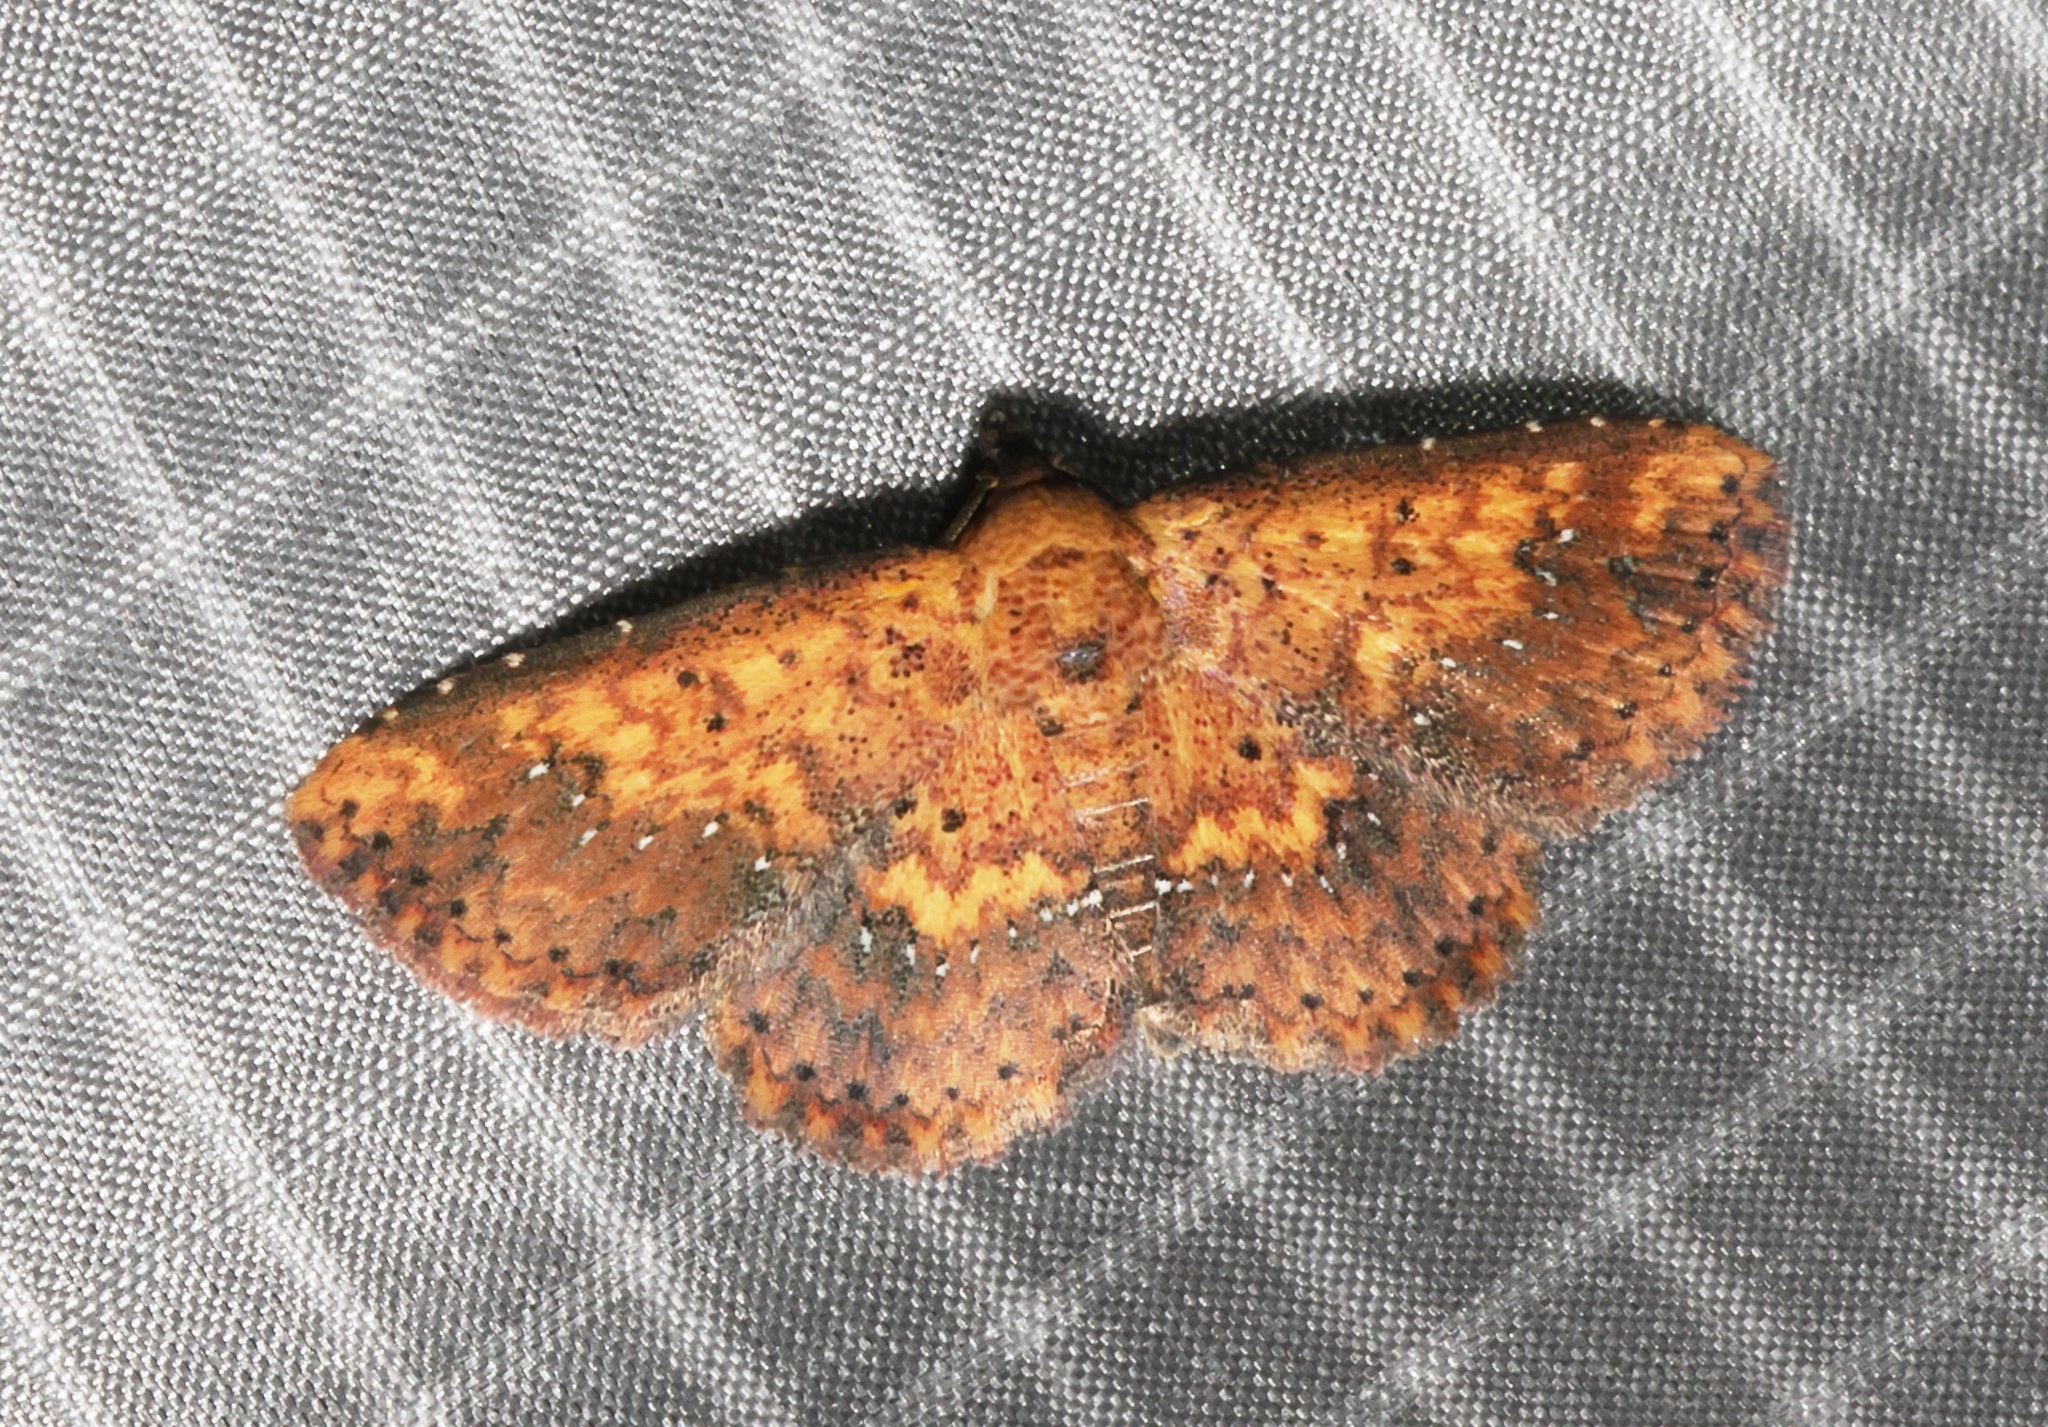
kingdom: Animalia
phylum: Arthropoda
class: Insecta
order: Lepidoptera
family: Noctuidae
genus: Cerynea
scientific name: Cerynea ustula
